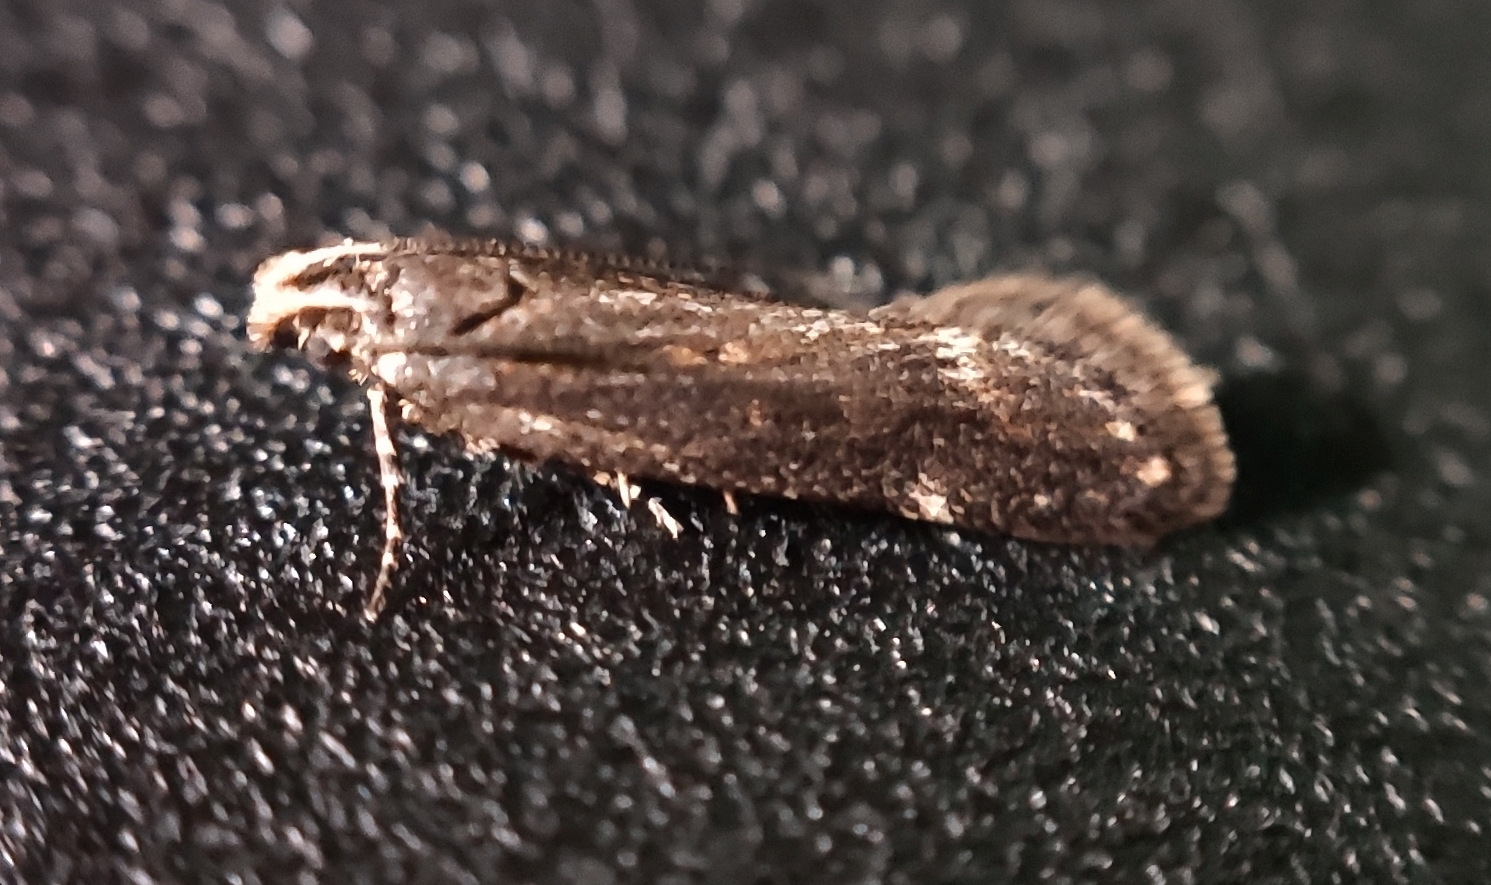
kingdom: Animalia
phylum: Arthropoda
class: Insecta
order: Lepidoptera
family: Gelechiidae
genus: Aroga
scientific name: Aroga velocella
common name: Dusky groundling
